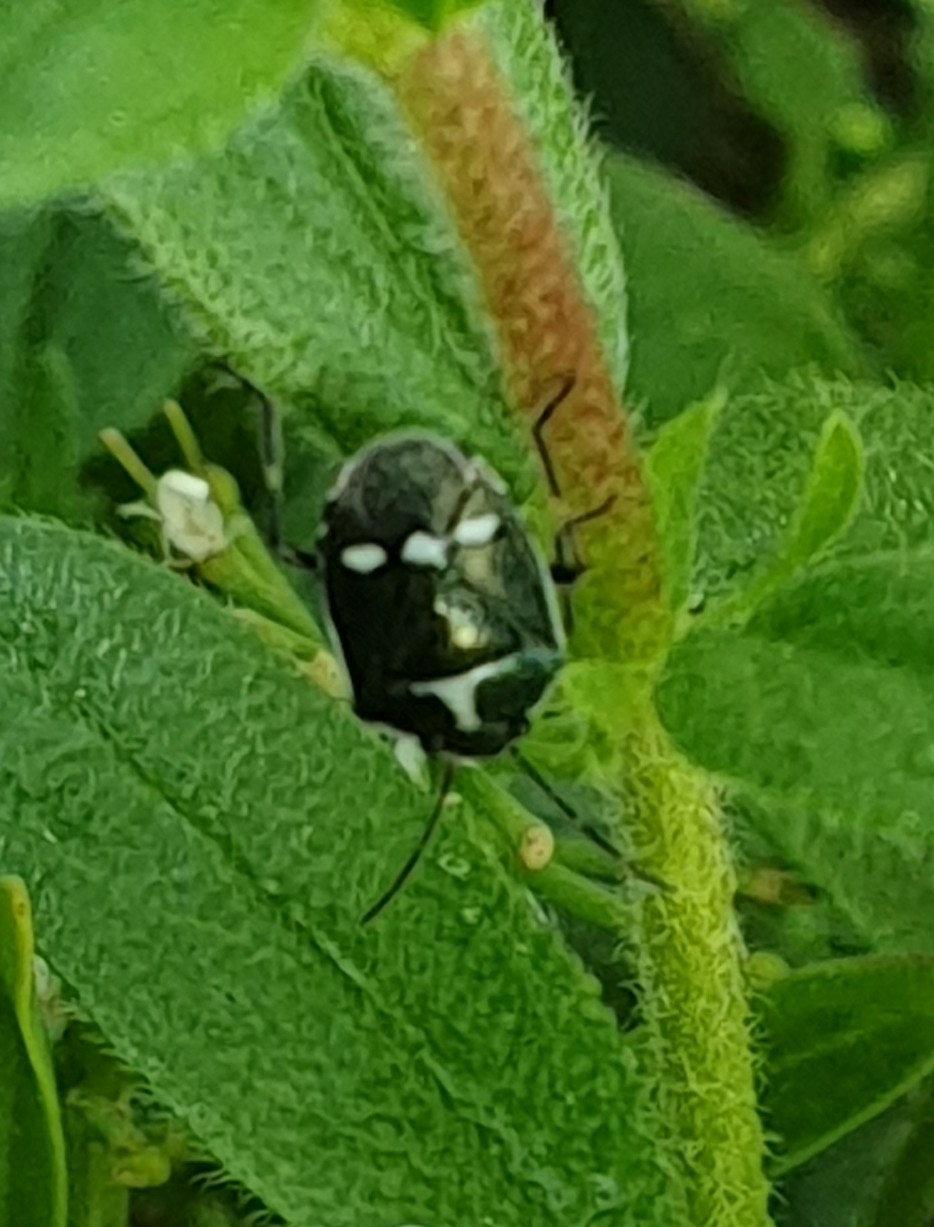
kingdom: Animalia
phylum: Arthropoda
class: Insecta
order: Hemiptera
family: Pentatomidae
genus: Eurydema
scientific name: Eurydema oleracea
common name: Cabbage bug
